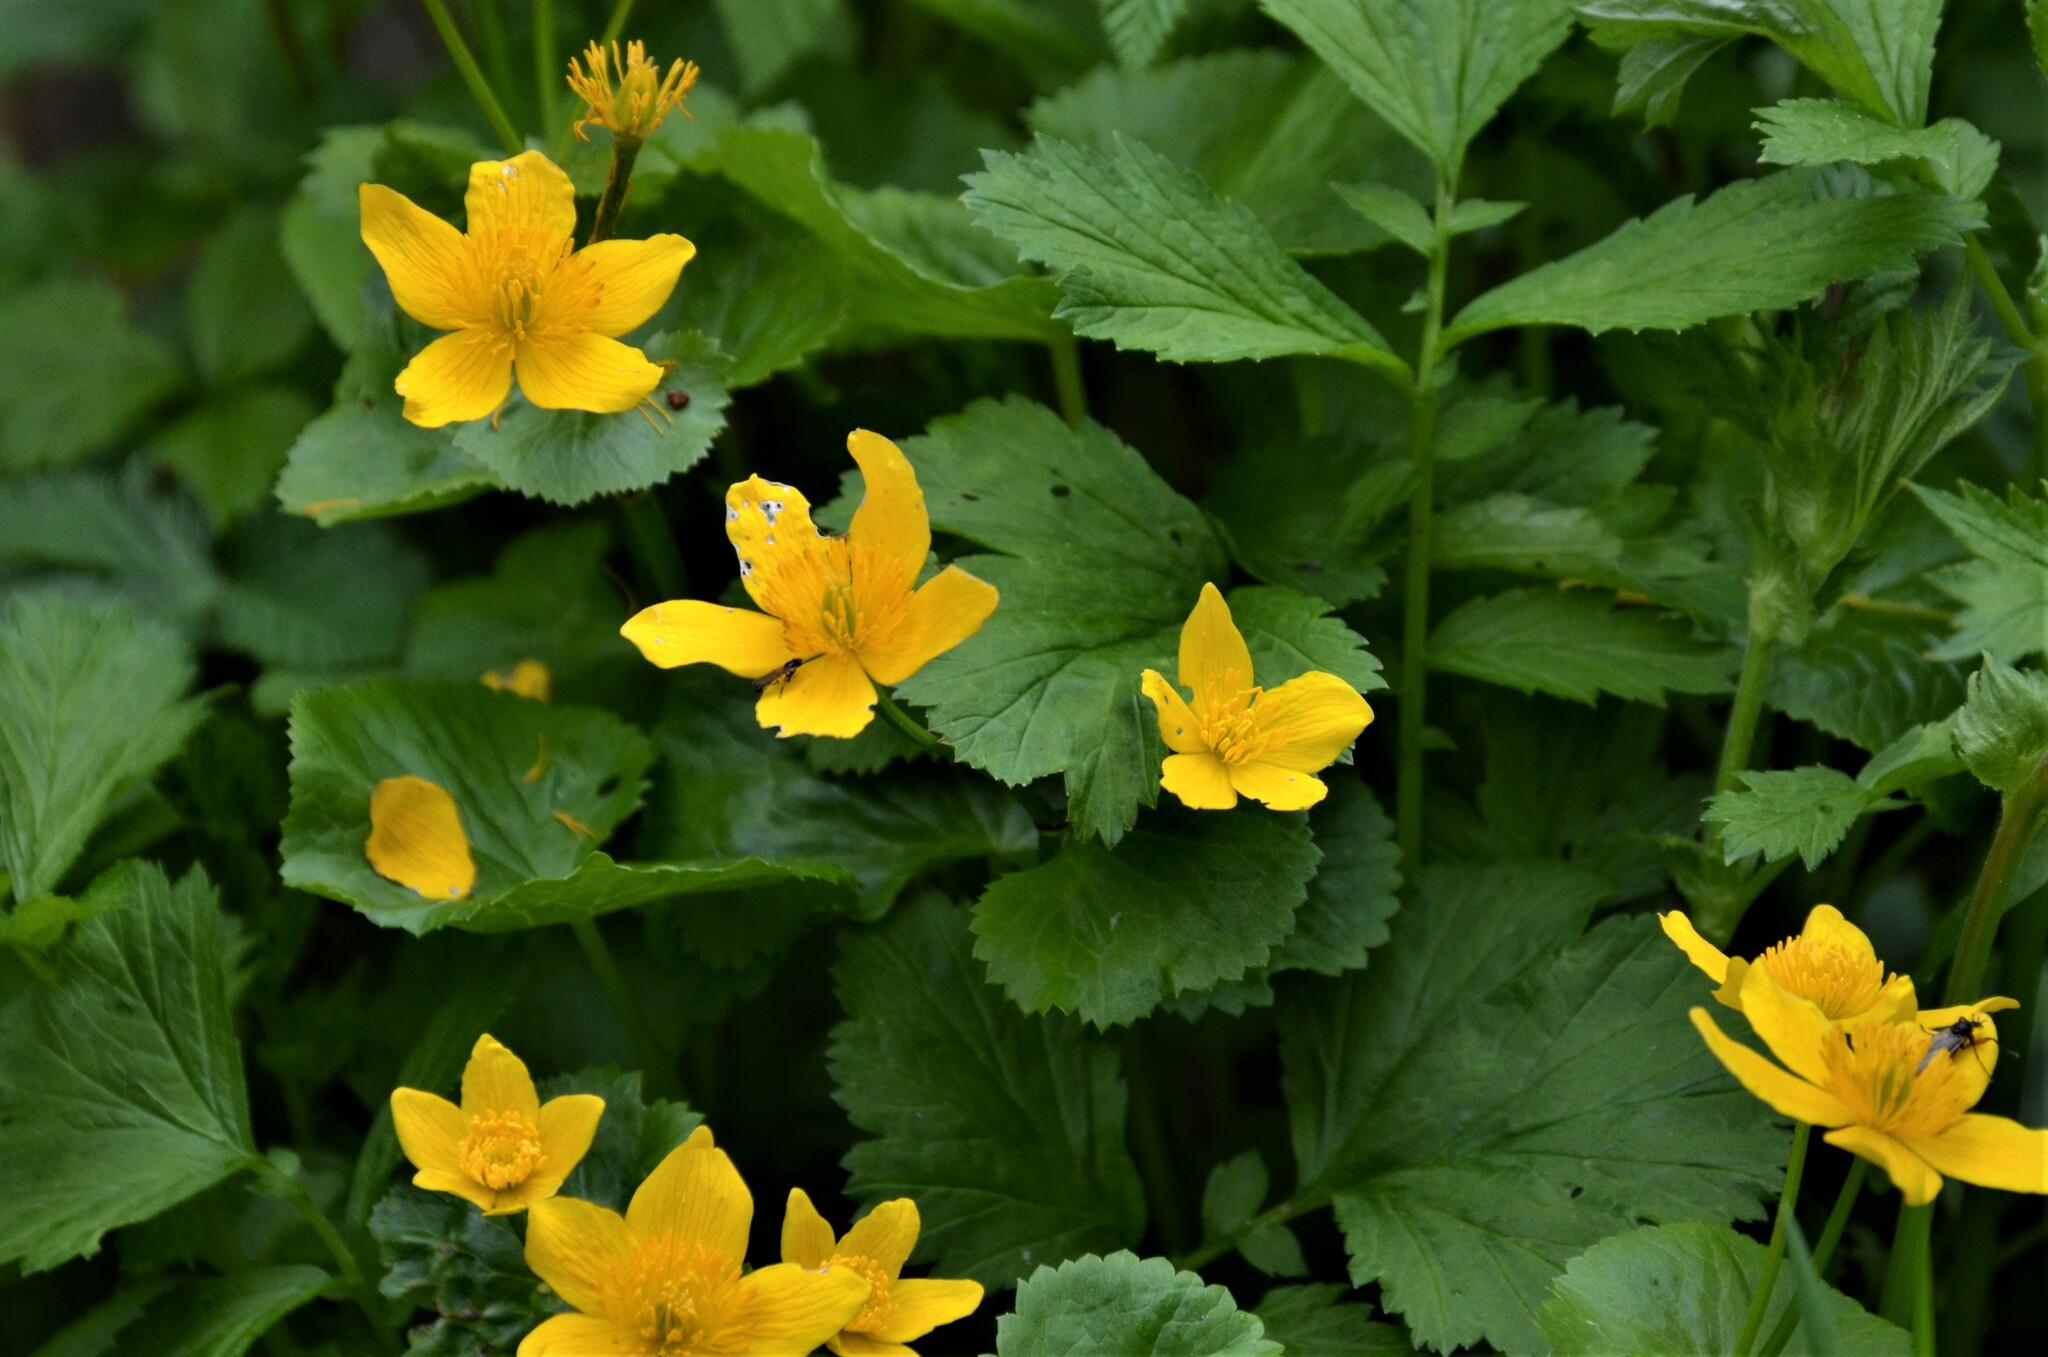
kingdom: Plantae
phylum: Tracheophyta
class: Magnoliopsida
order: Ranunculales
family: Ranunculaceae
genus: Caltha
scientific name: Caltha palustris
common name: Marsh marigold
